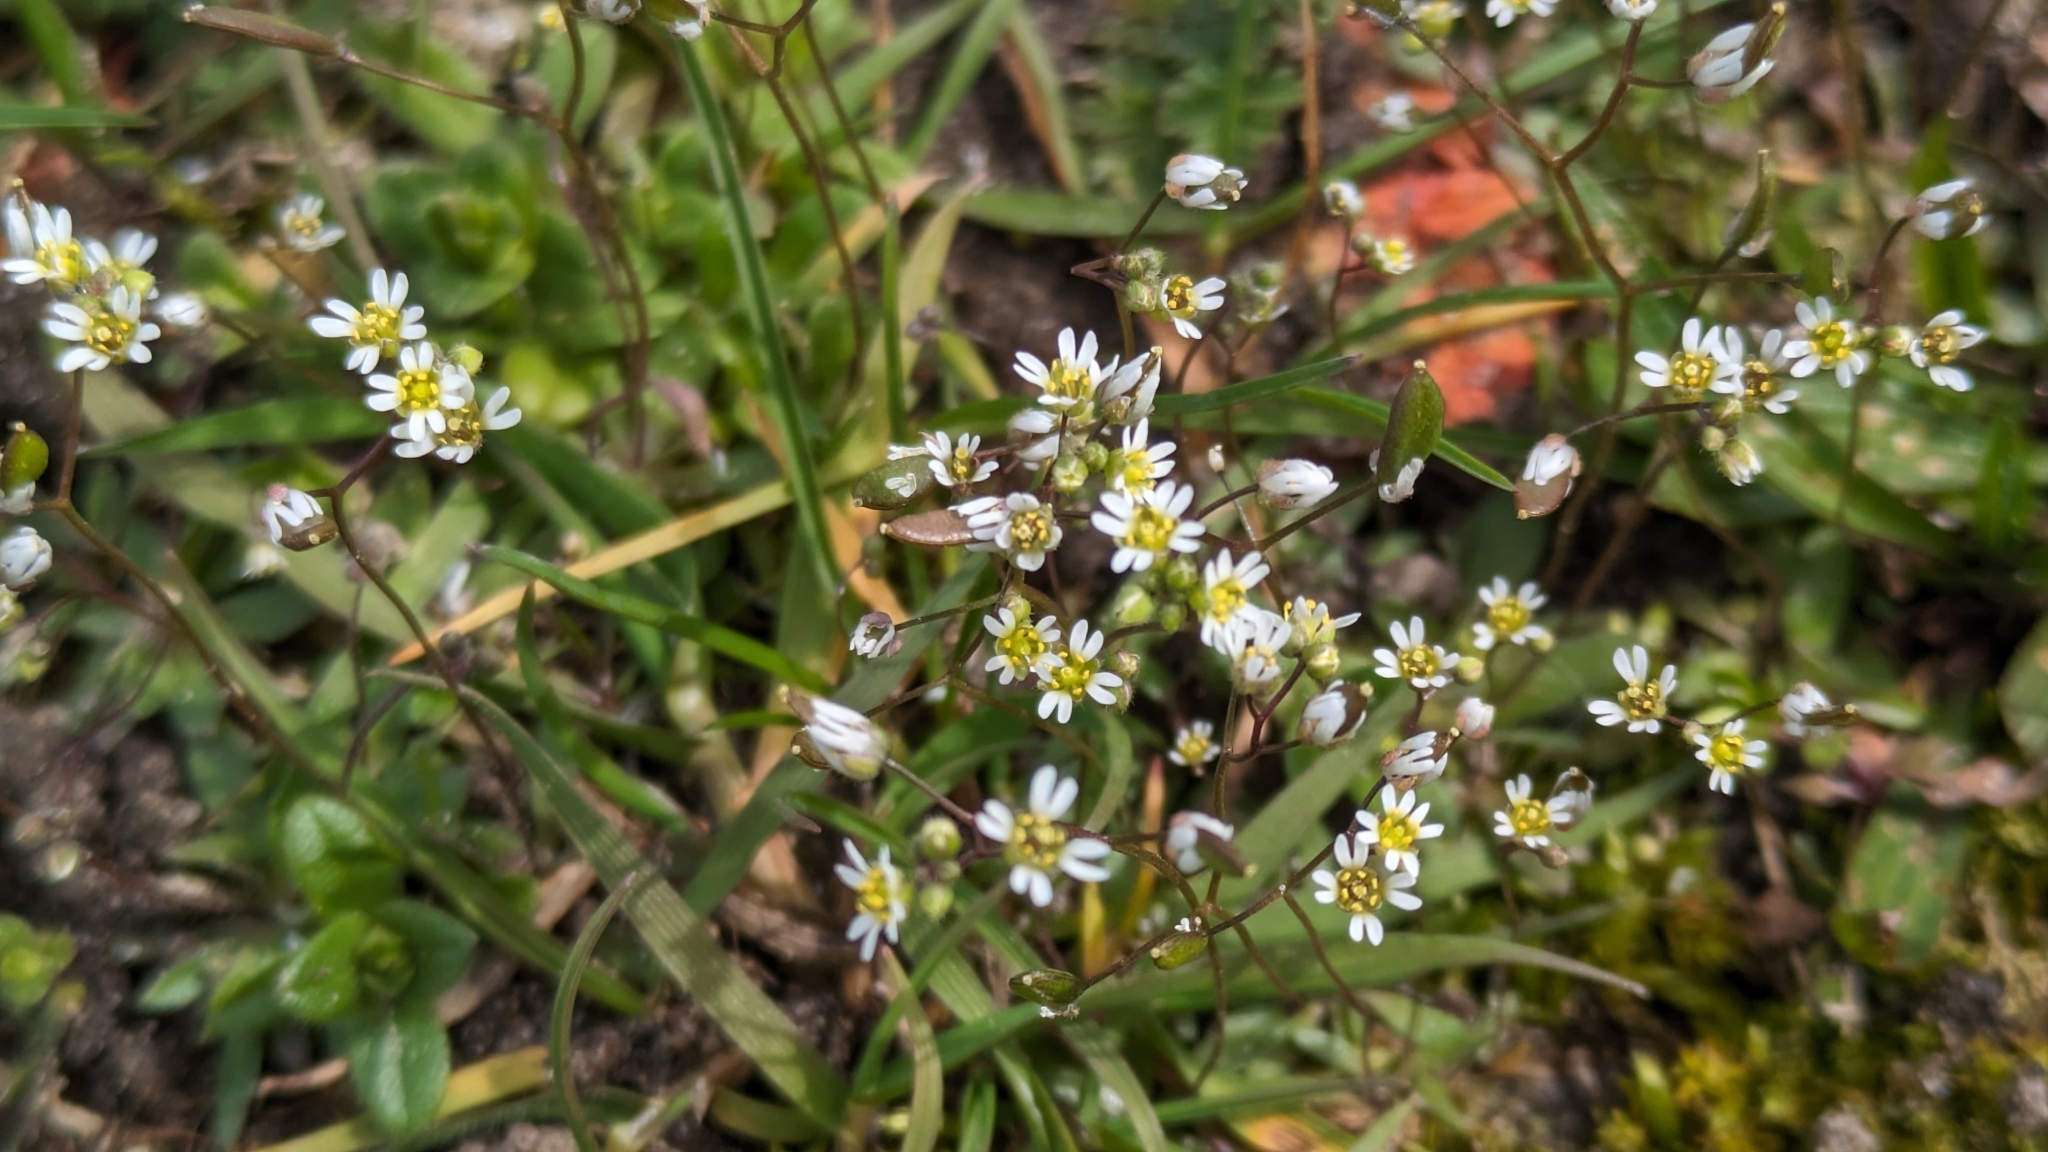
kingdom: Plantae
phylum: Tracheophyta
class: Magnoliopsida
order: Brassicales
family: Brassicaceae
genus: Draba
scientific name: Draba verna
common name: Spring draba
